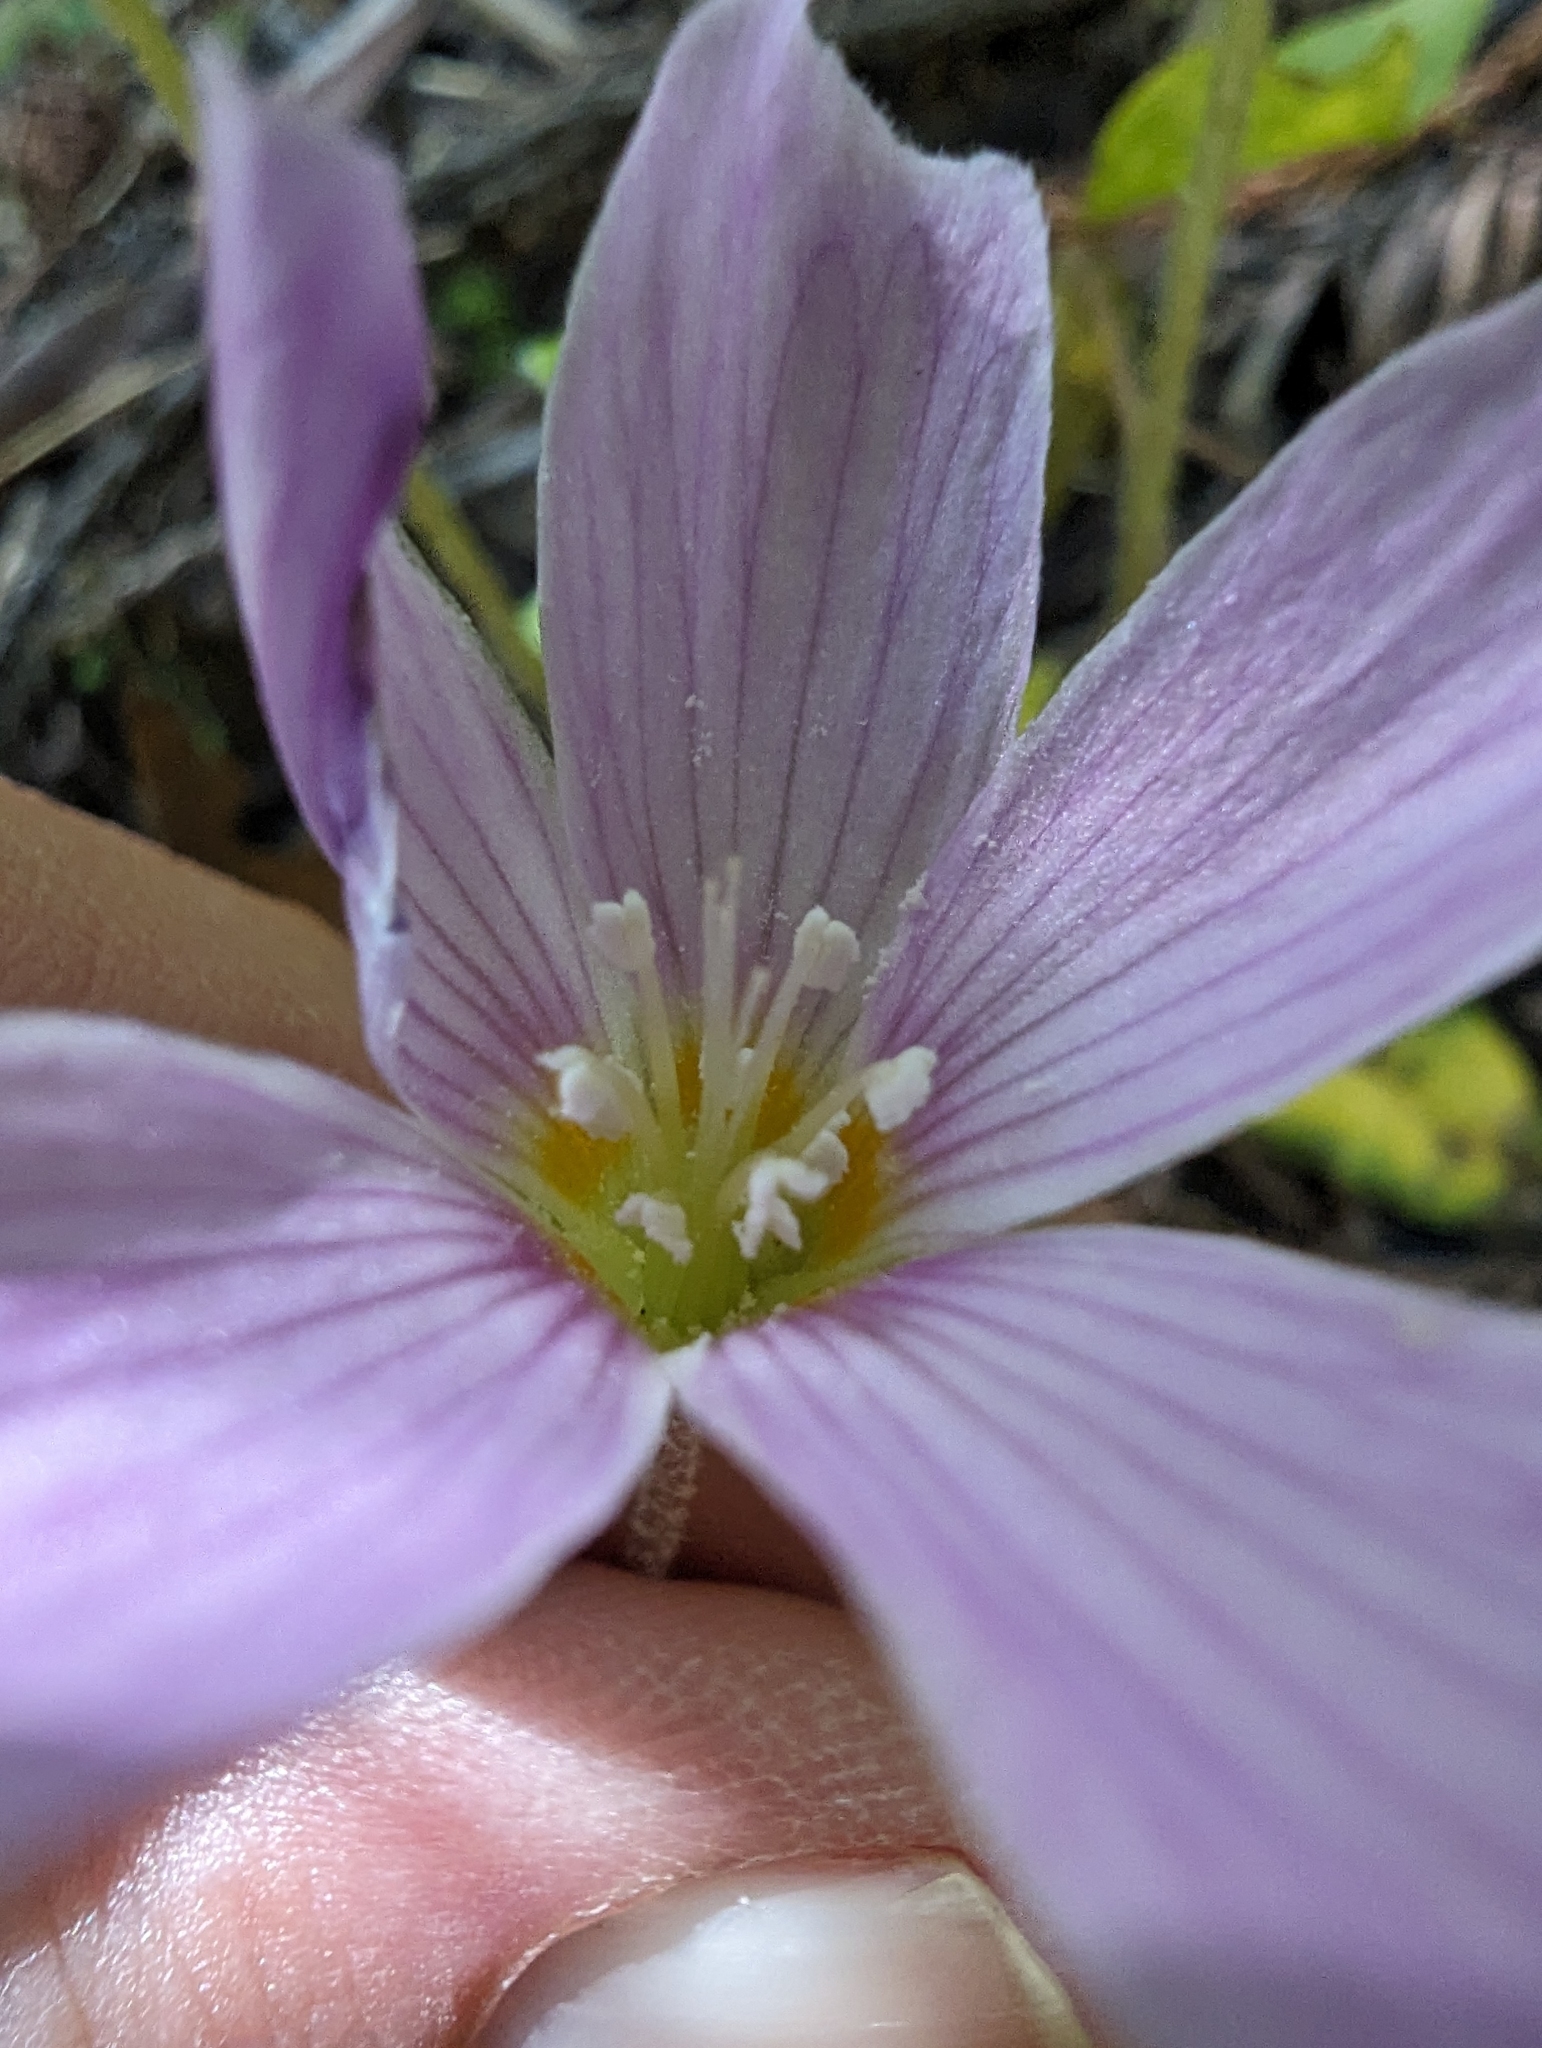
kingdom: Plantae
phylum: Tracheophyta
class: Magnoliopsida
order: Oxalidales
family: Oxalidaceae
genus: Oxalis
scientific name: Oxalis oregana
